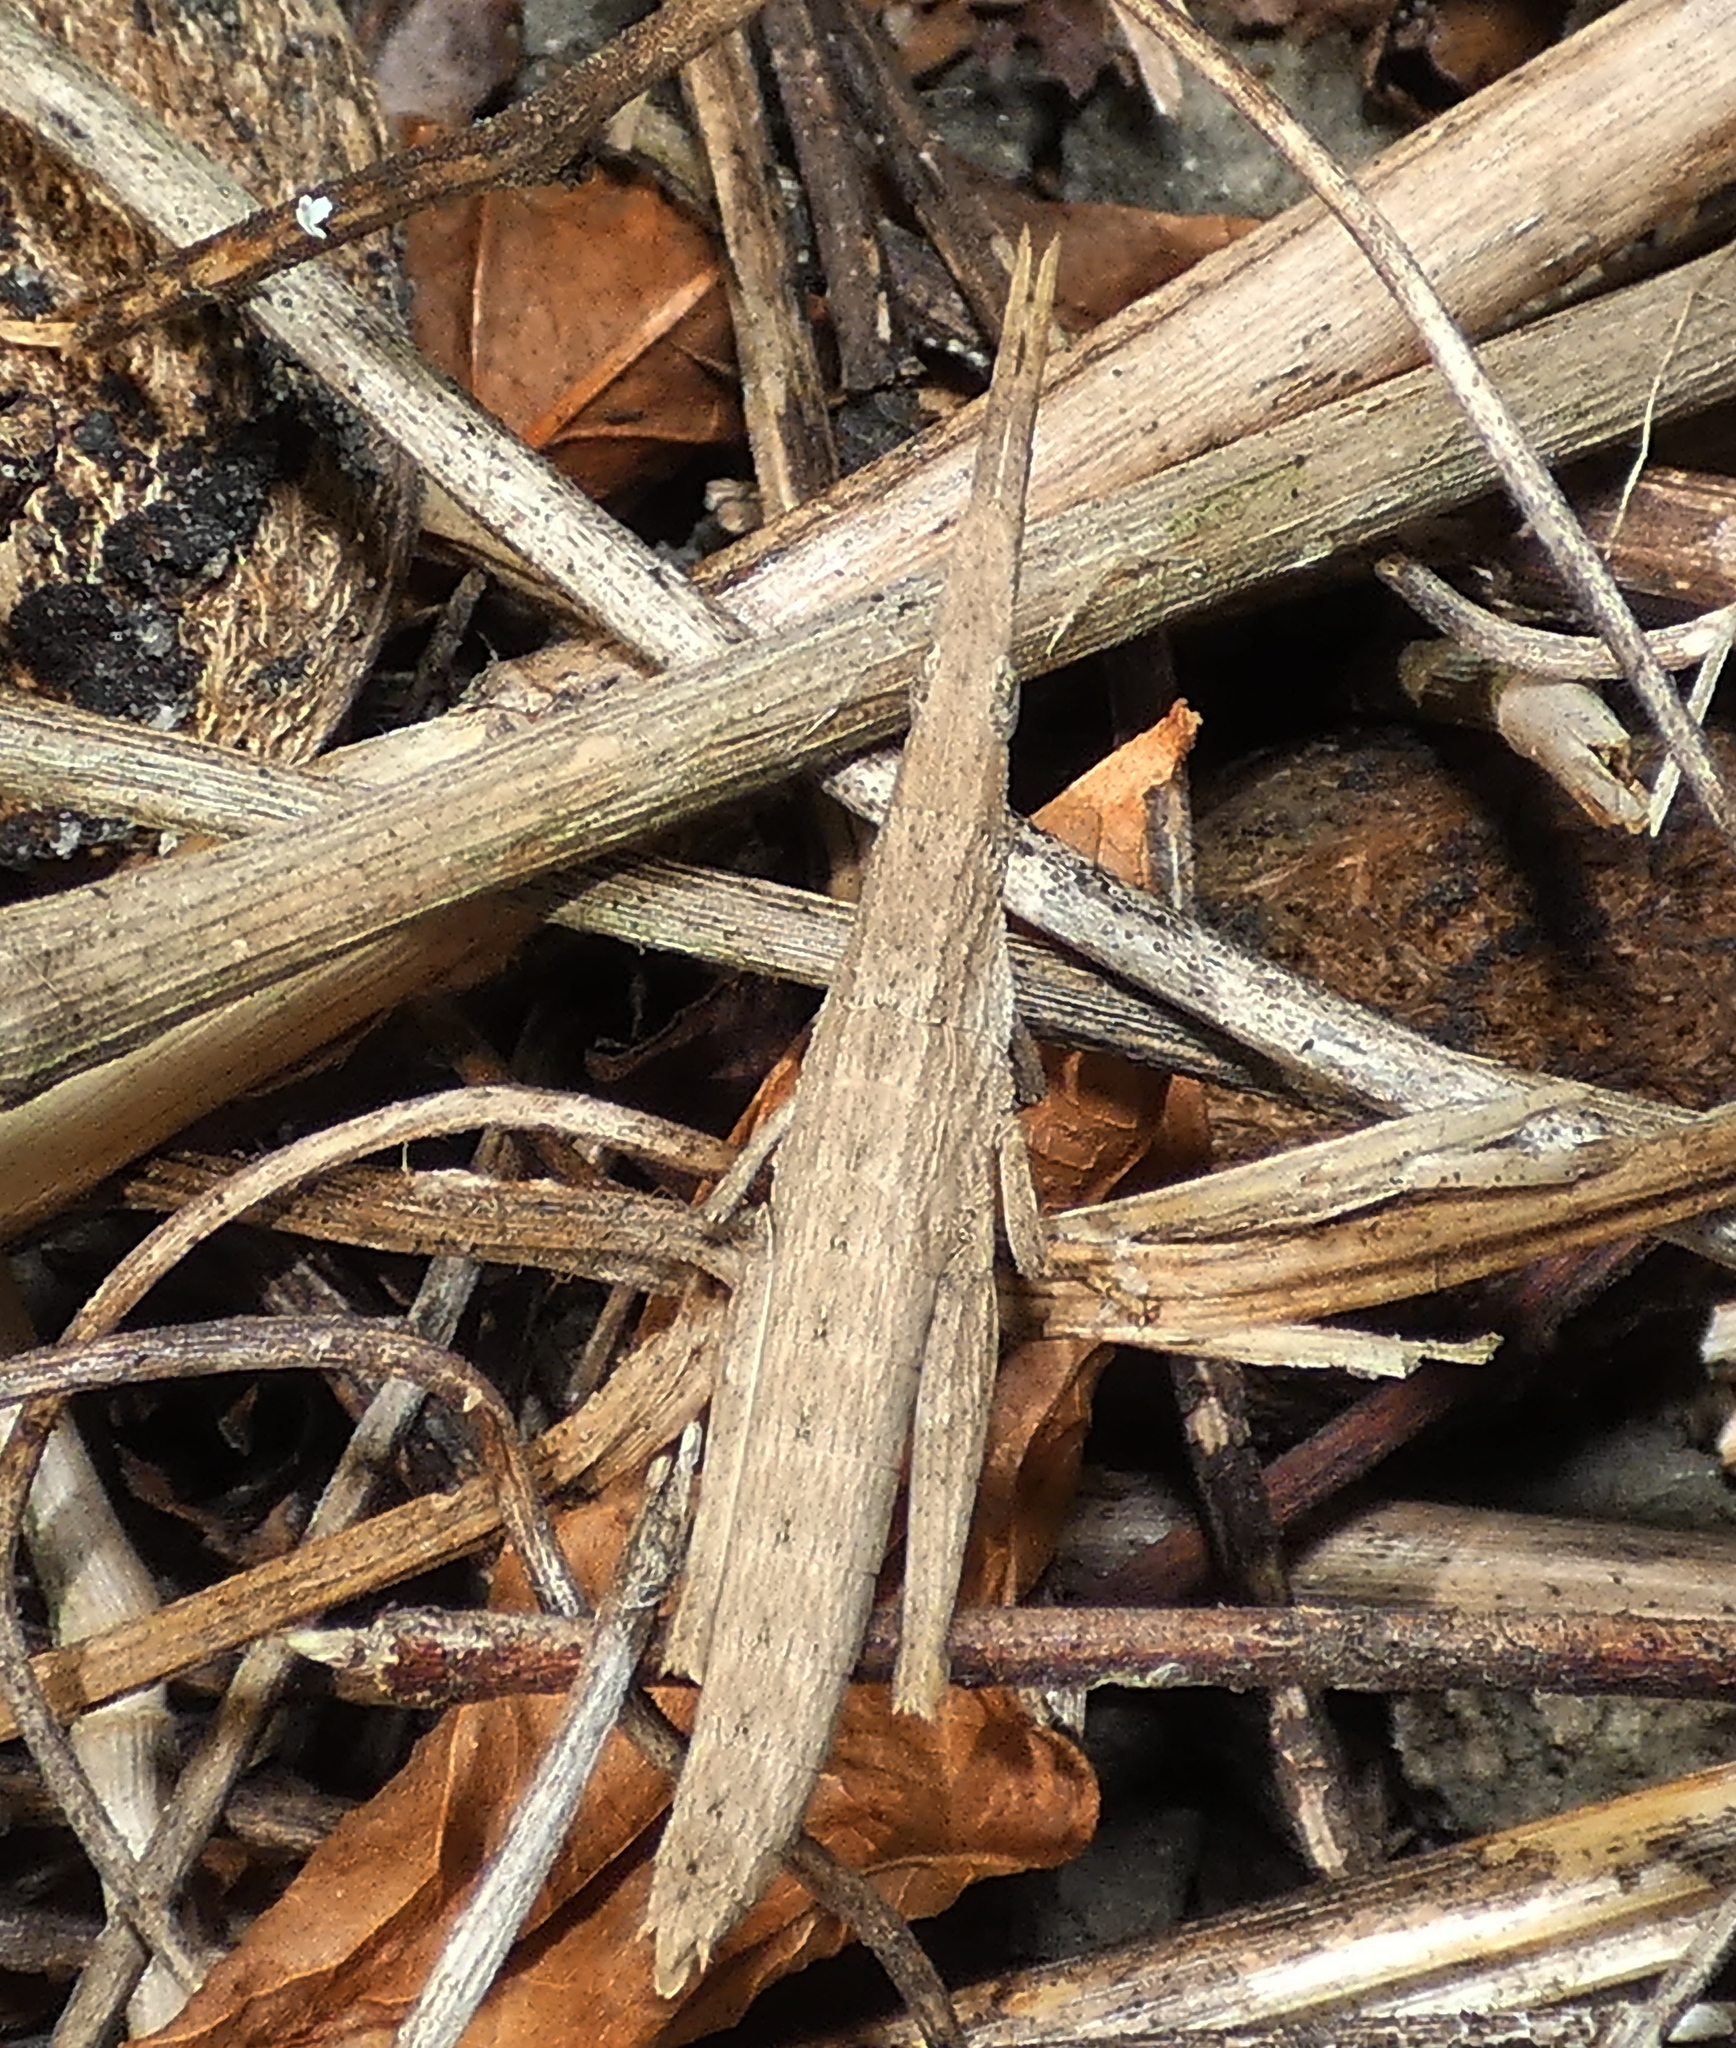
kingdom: Animalia
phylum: Arthropoda
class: Insecta
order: Orthoptera
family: Pyrgomorphidae
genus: Algete
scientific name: Algete brunneri
